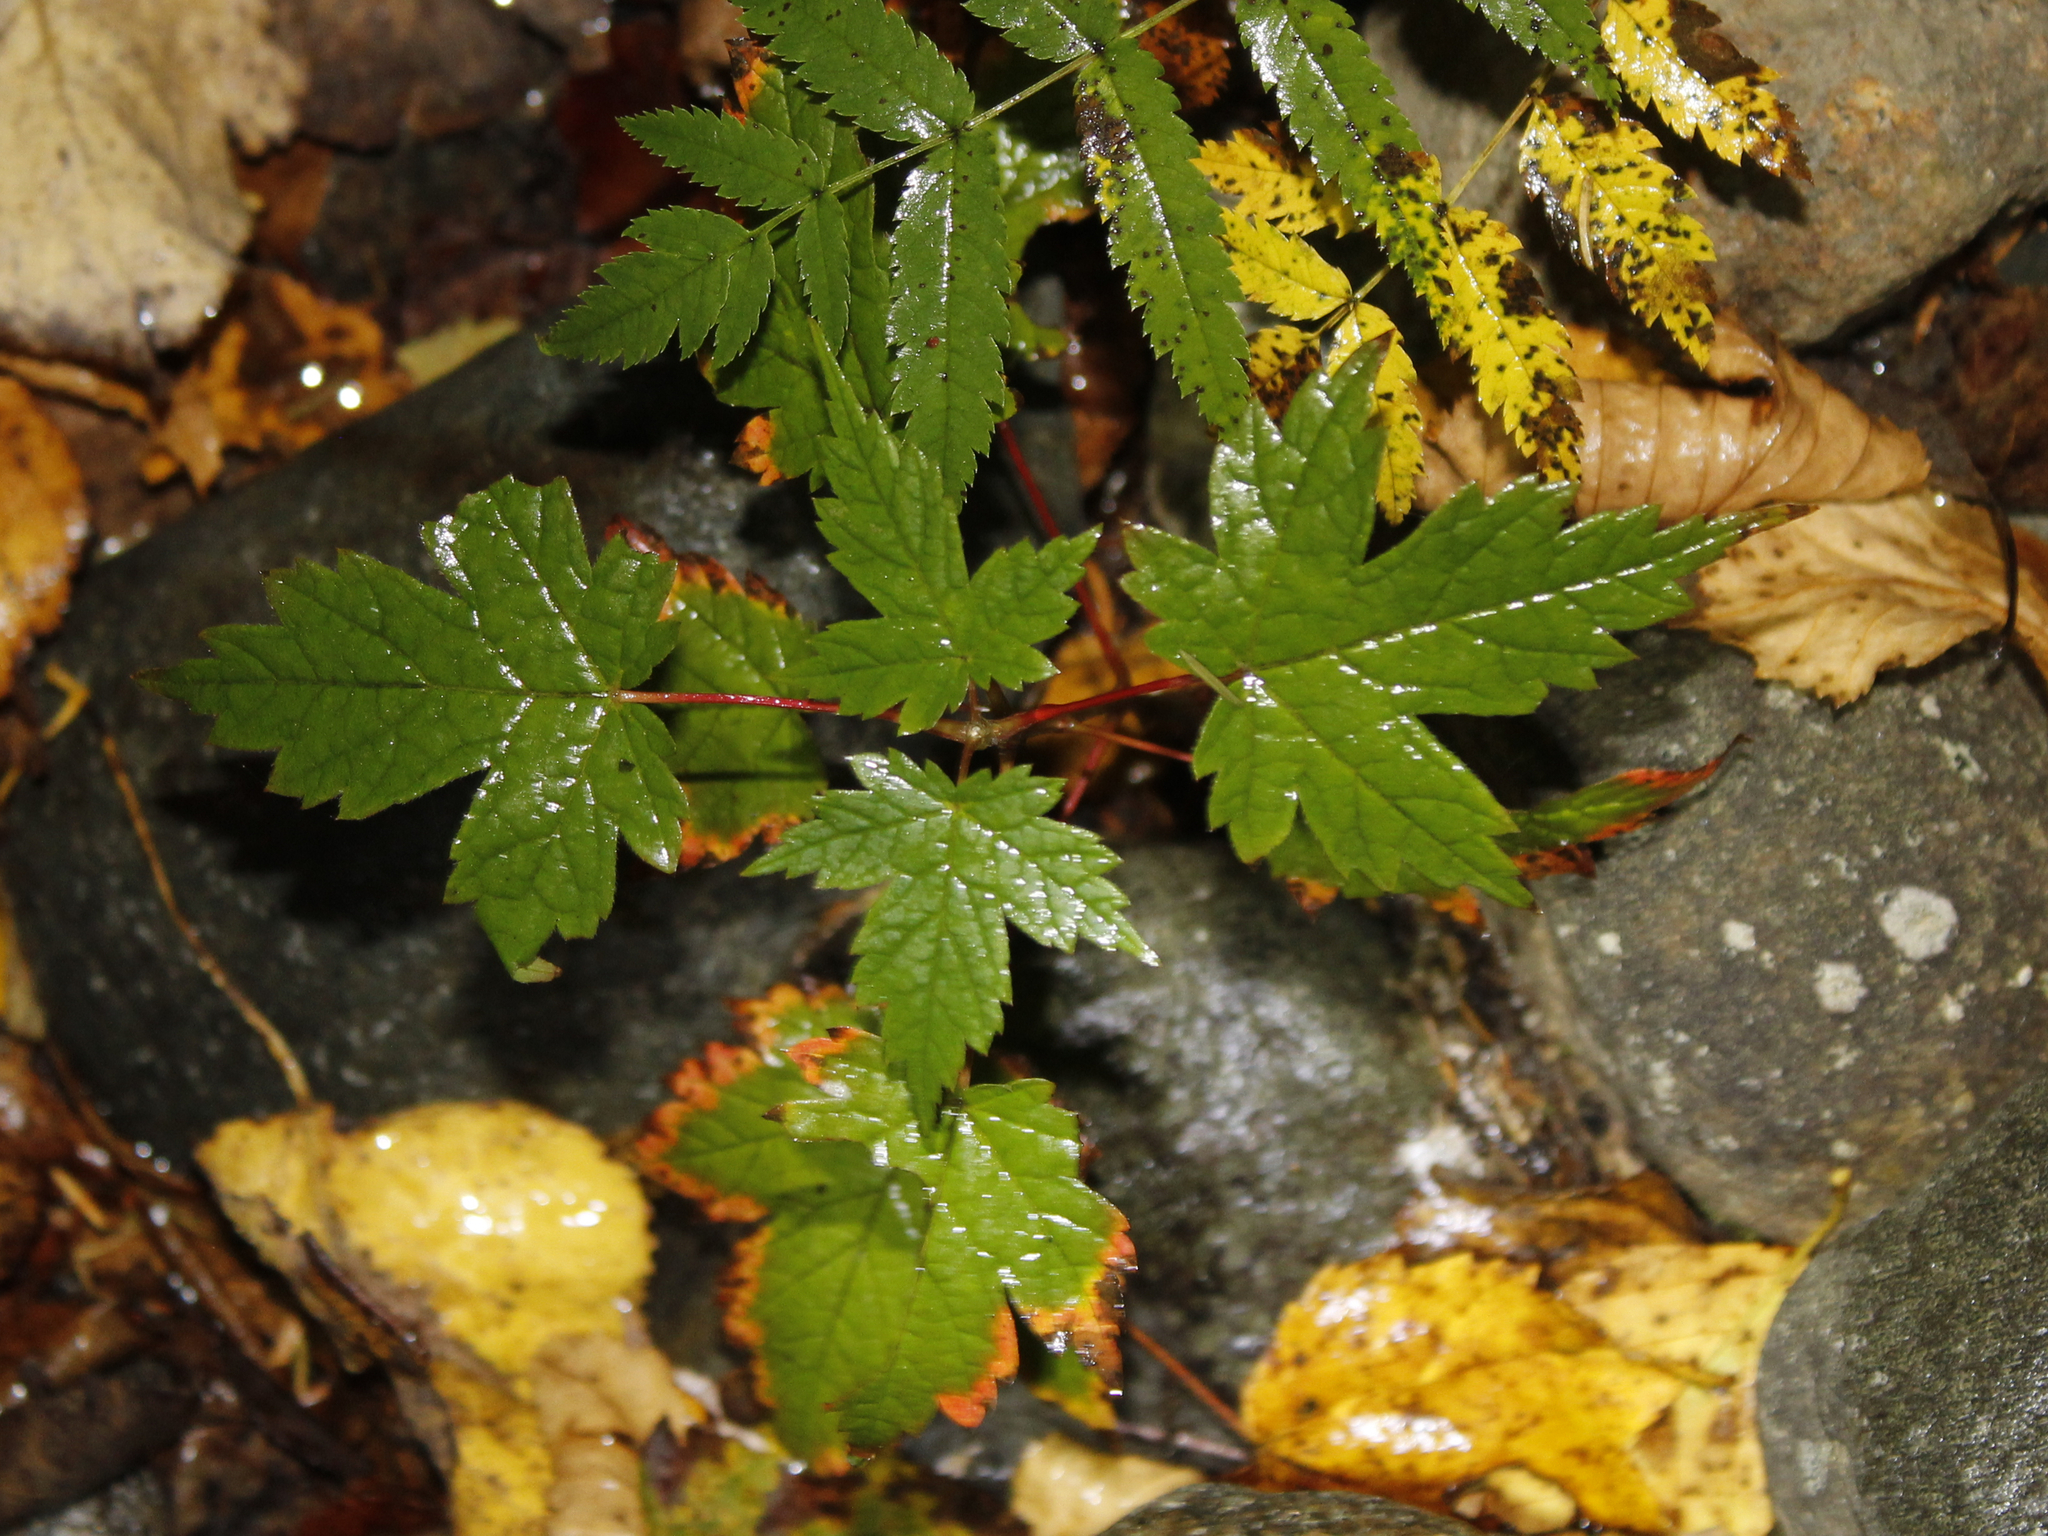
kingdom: Plantae
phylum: Tracheophyta
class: Magnoliopsida
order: Sapindales
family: Sapindaceae
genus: Acer
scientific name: Acer spicatum
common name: Mountain maple
